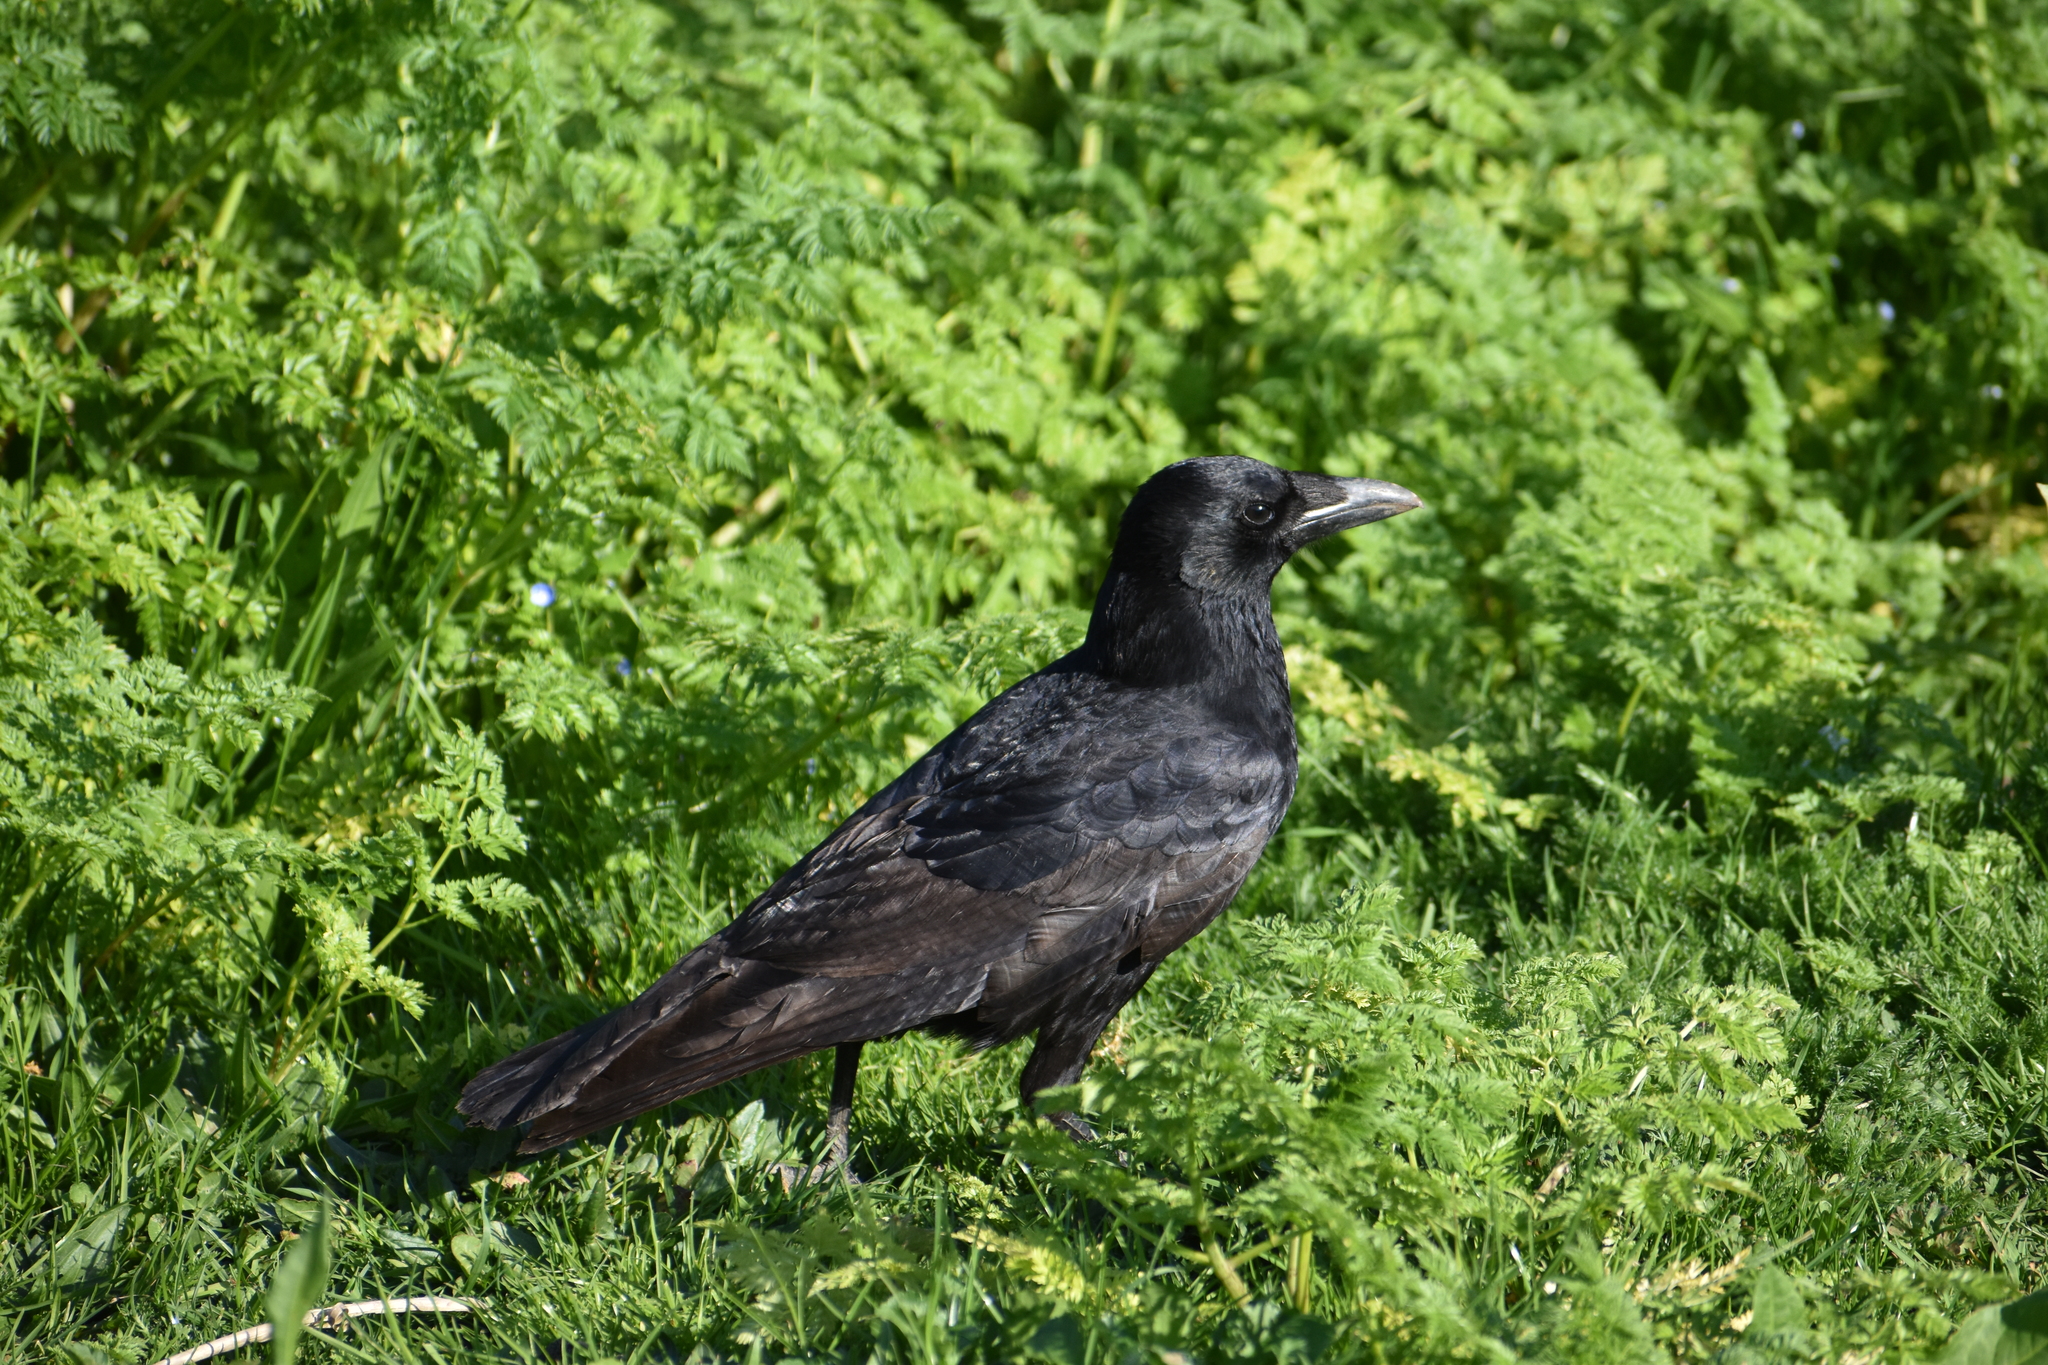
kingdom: Animalia
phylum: Chordata
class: Aves
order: Passeriformes
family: Corvidae
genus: Corvus
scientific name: Corvus corone
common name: Carrion crow
